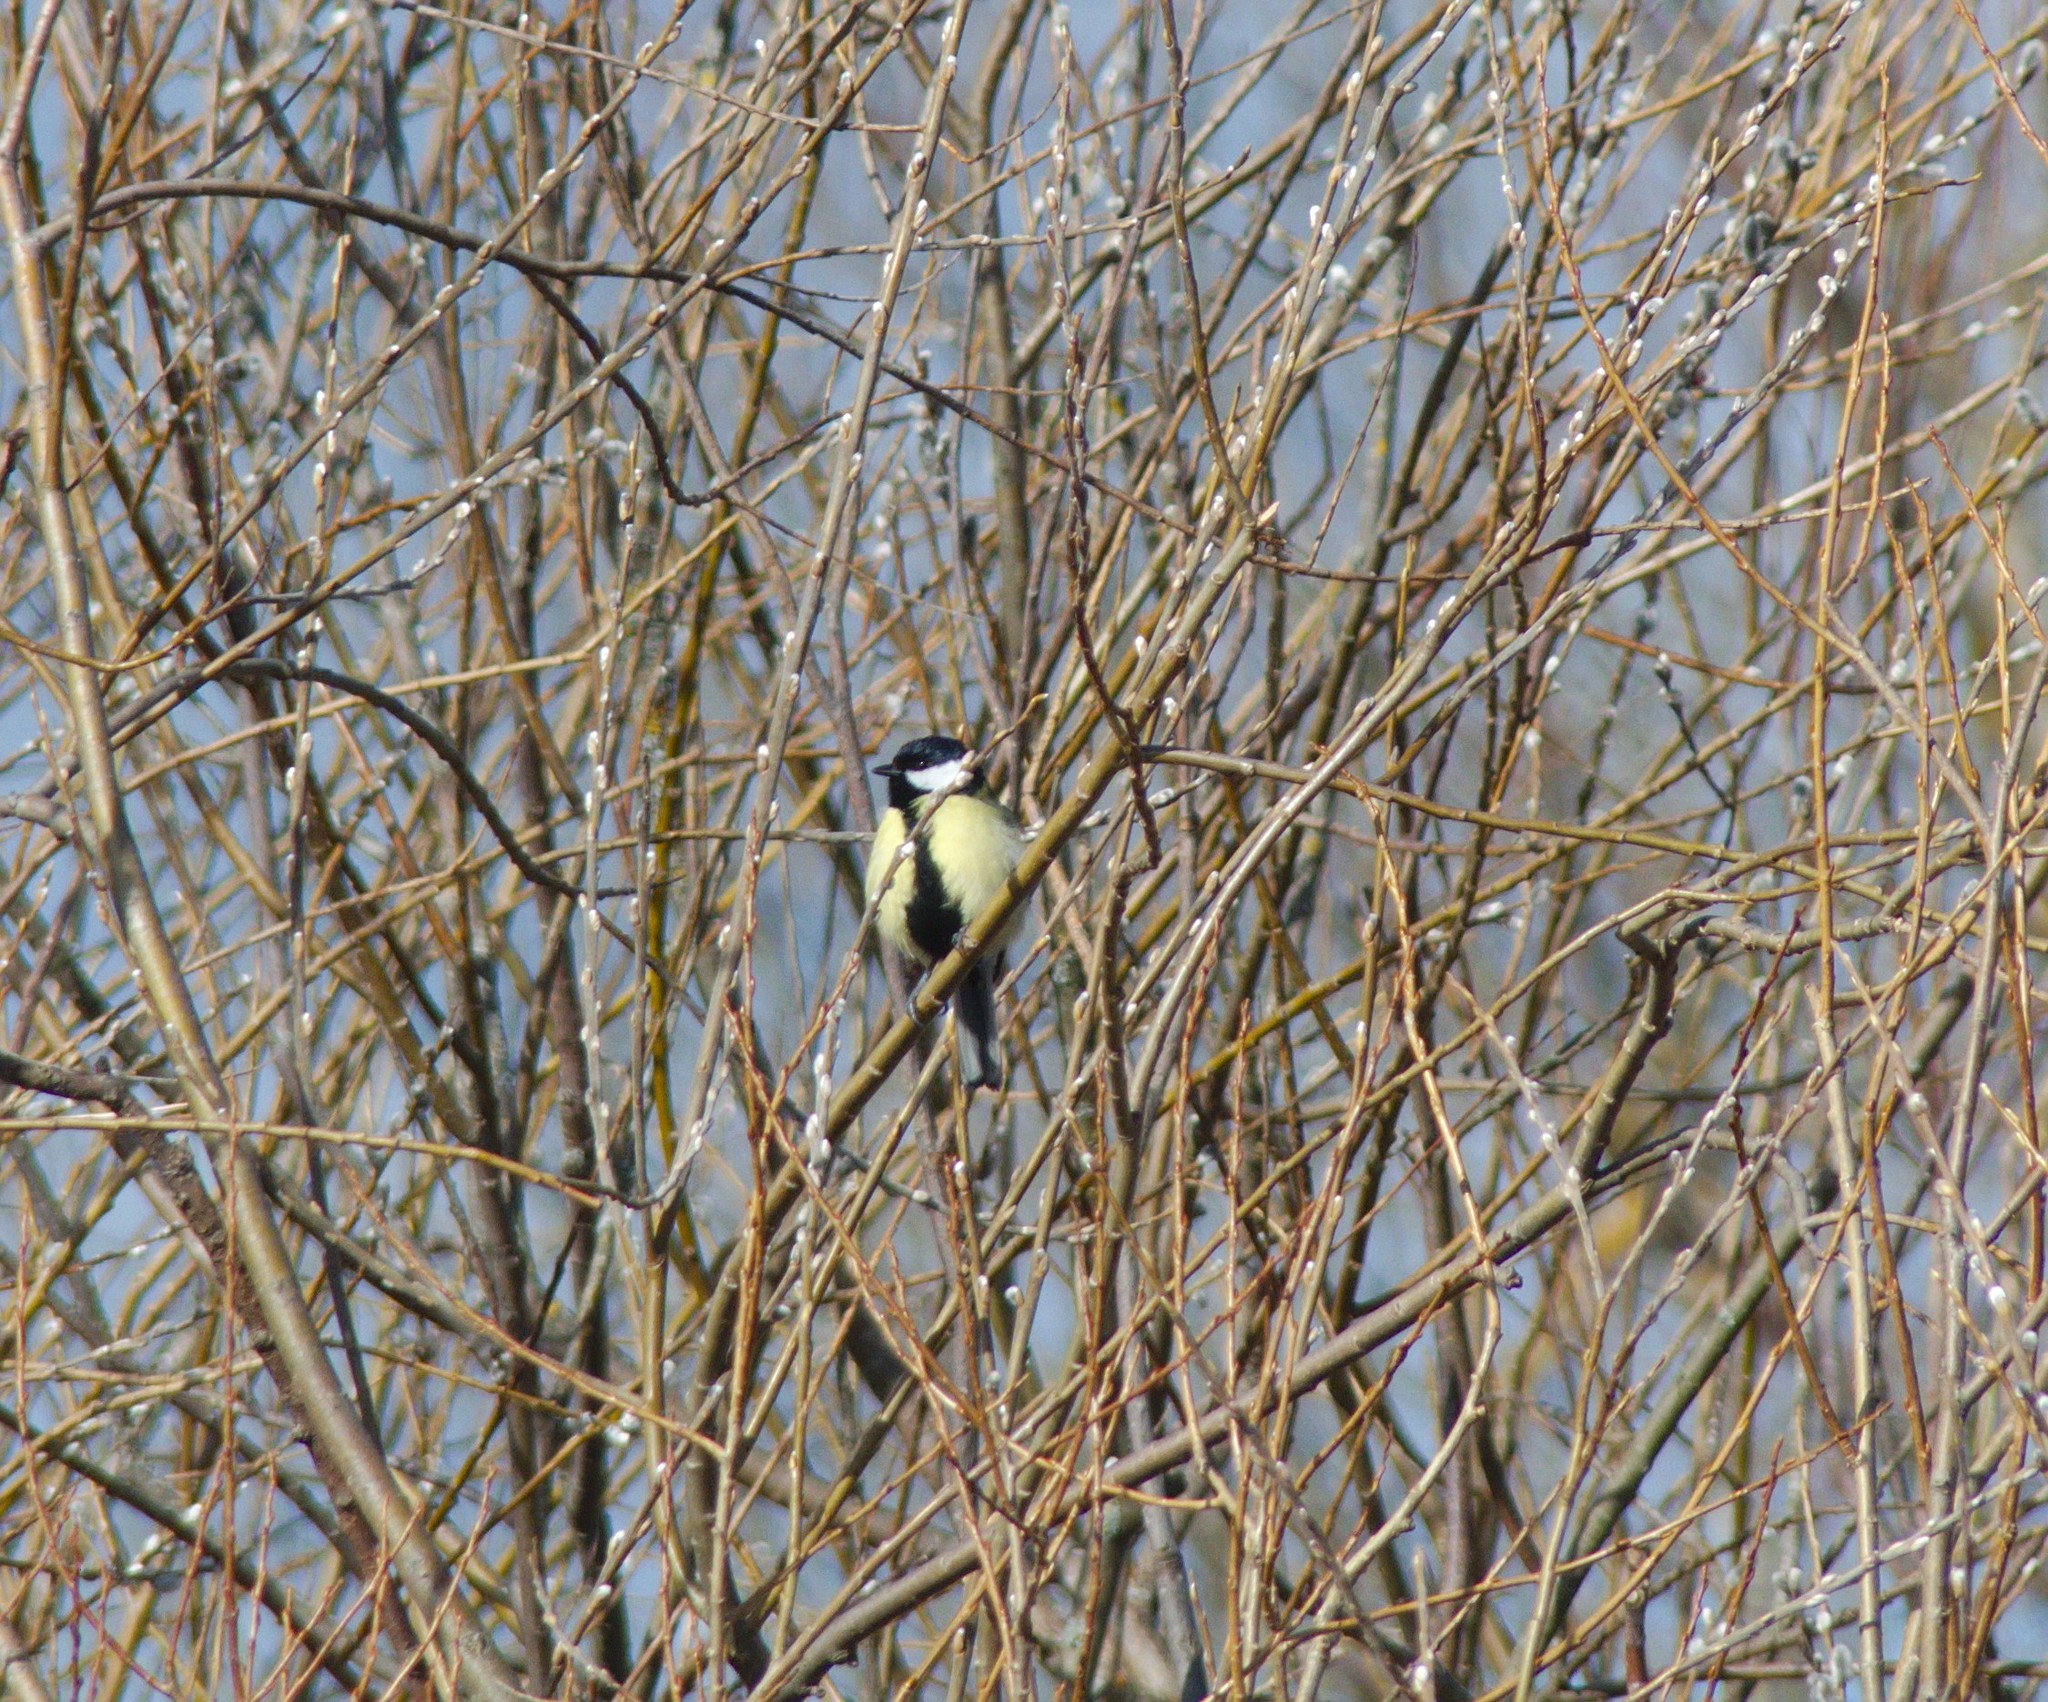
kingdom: Animalia
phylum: Chordata
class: Aves
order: Passeriformes
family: Paridae
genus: Parus
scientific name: Parus major
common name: Great tit
